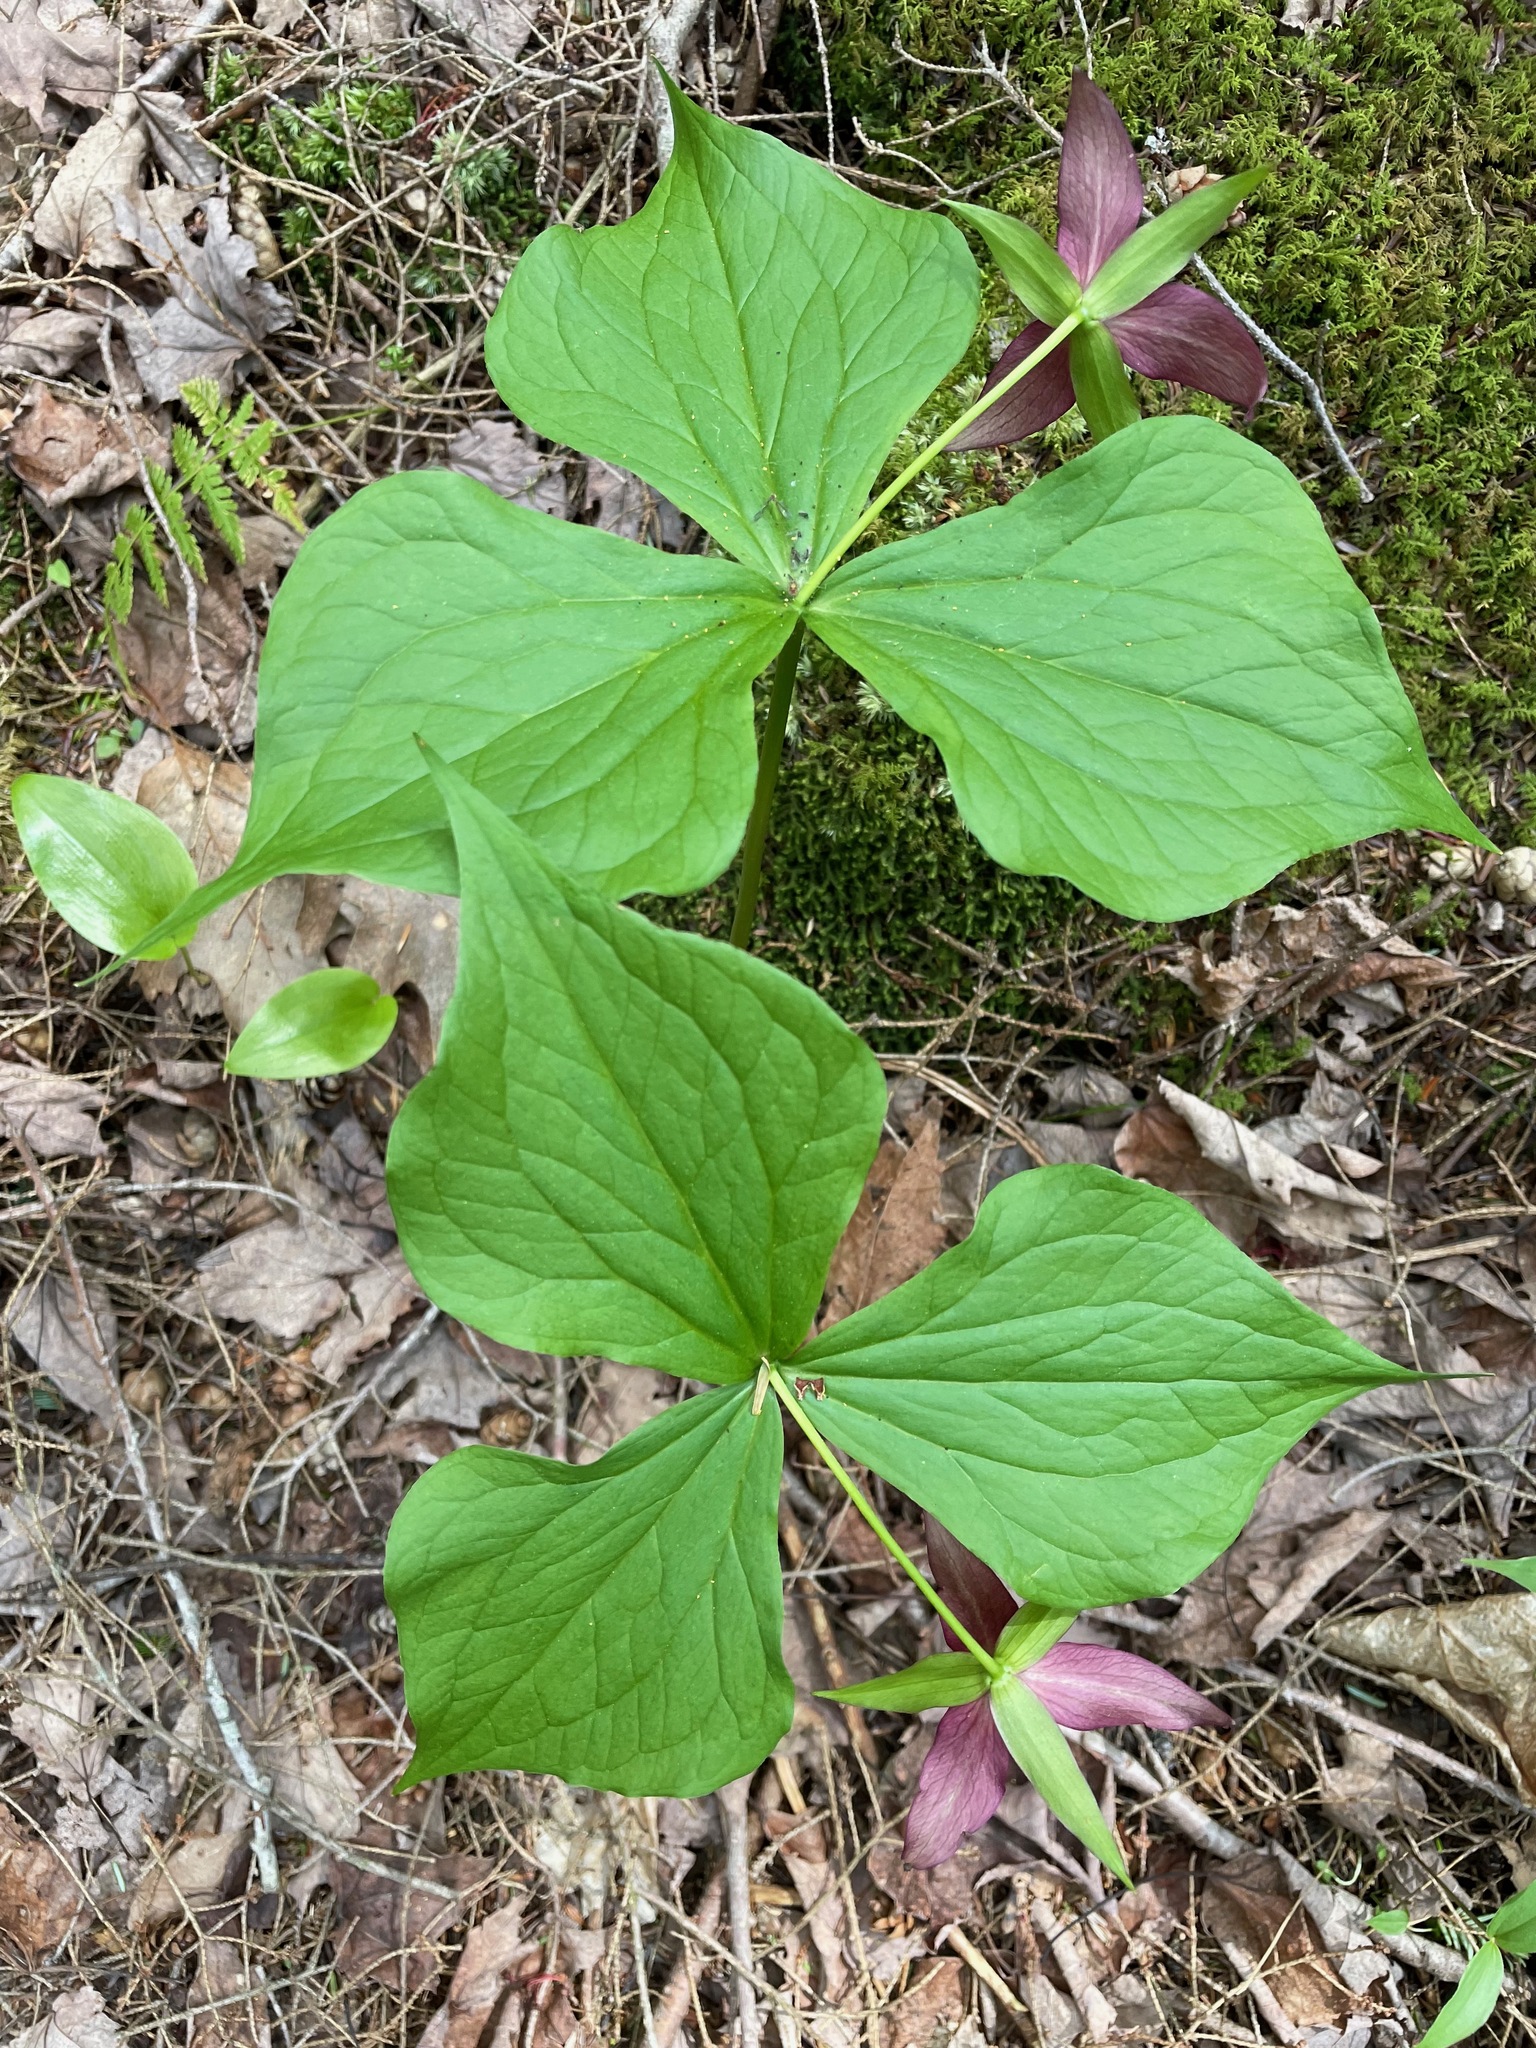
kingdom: Plantae
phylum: Tracheophyta
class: Liliopsida
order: Liliales
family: Melanthiaceae
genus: Trillium
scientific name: Trillium erectum
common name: Purple trillium
